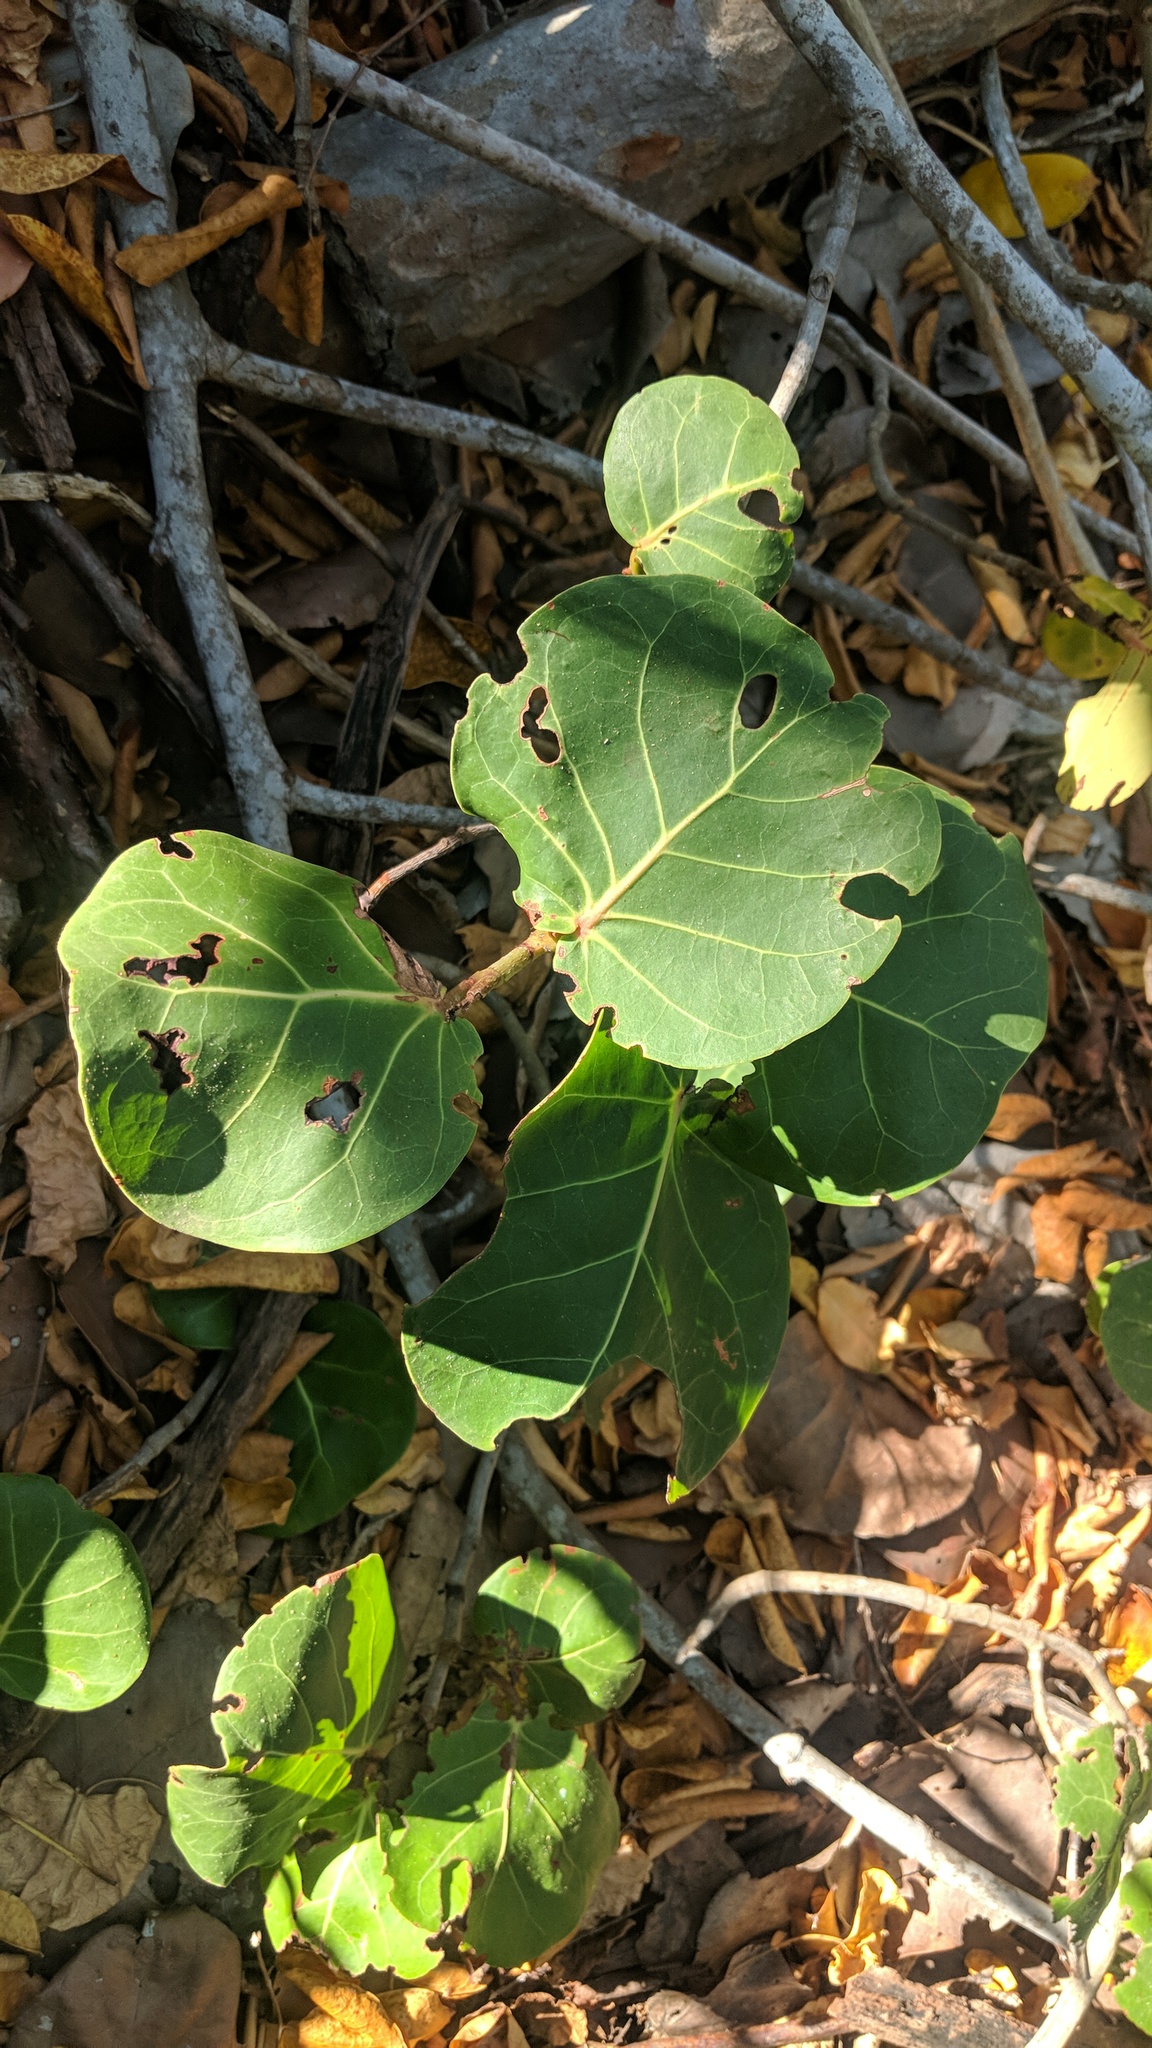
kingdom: Plantae
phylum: Tracheophyta
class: Magnoliopsida
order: Caryophyllales
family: Polygonaceae
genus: Coccoloba
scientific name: Coccoloba uvifera
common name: Seagrape
